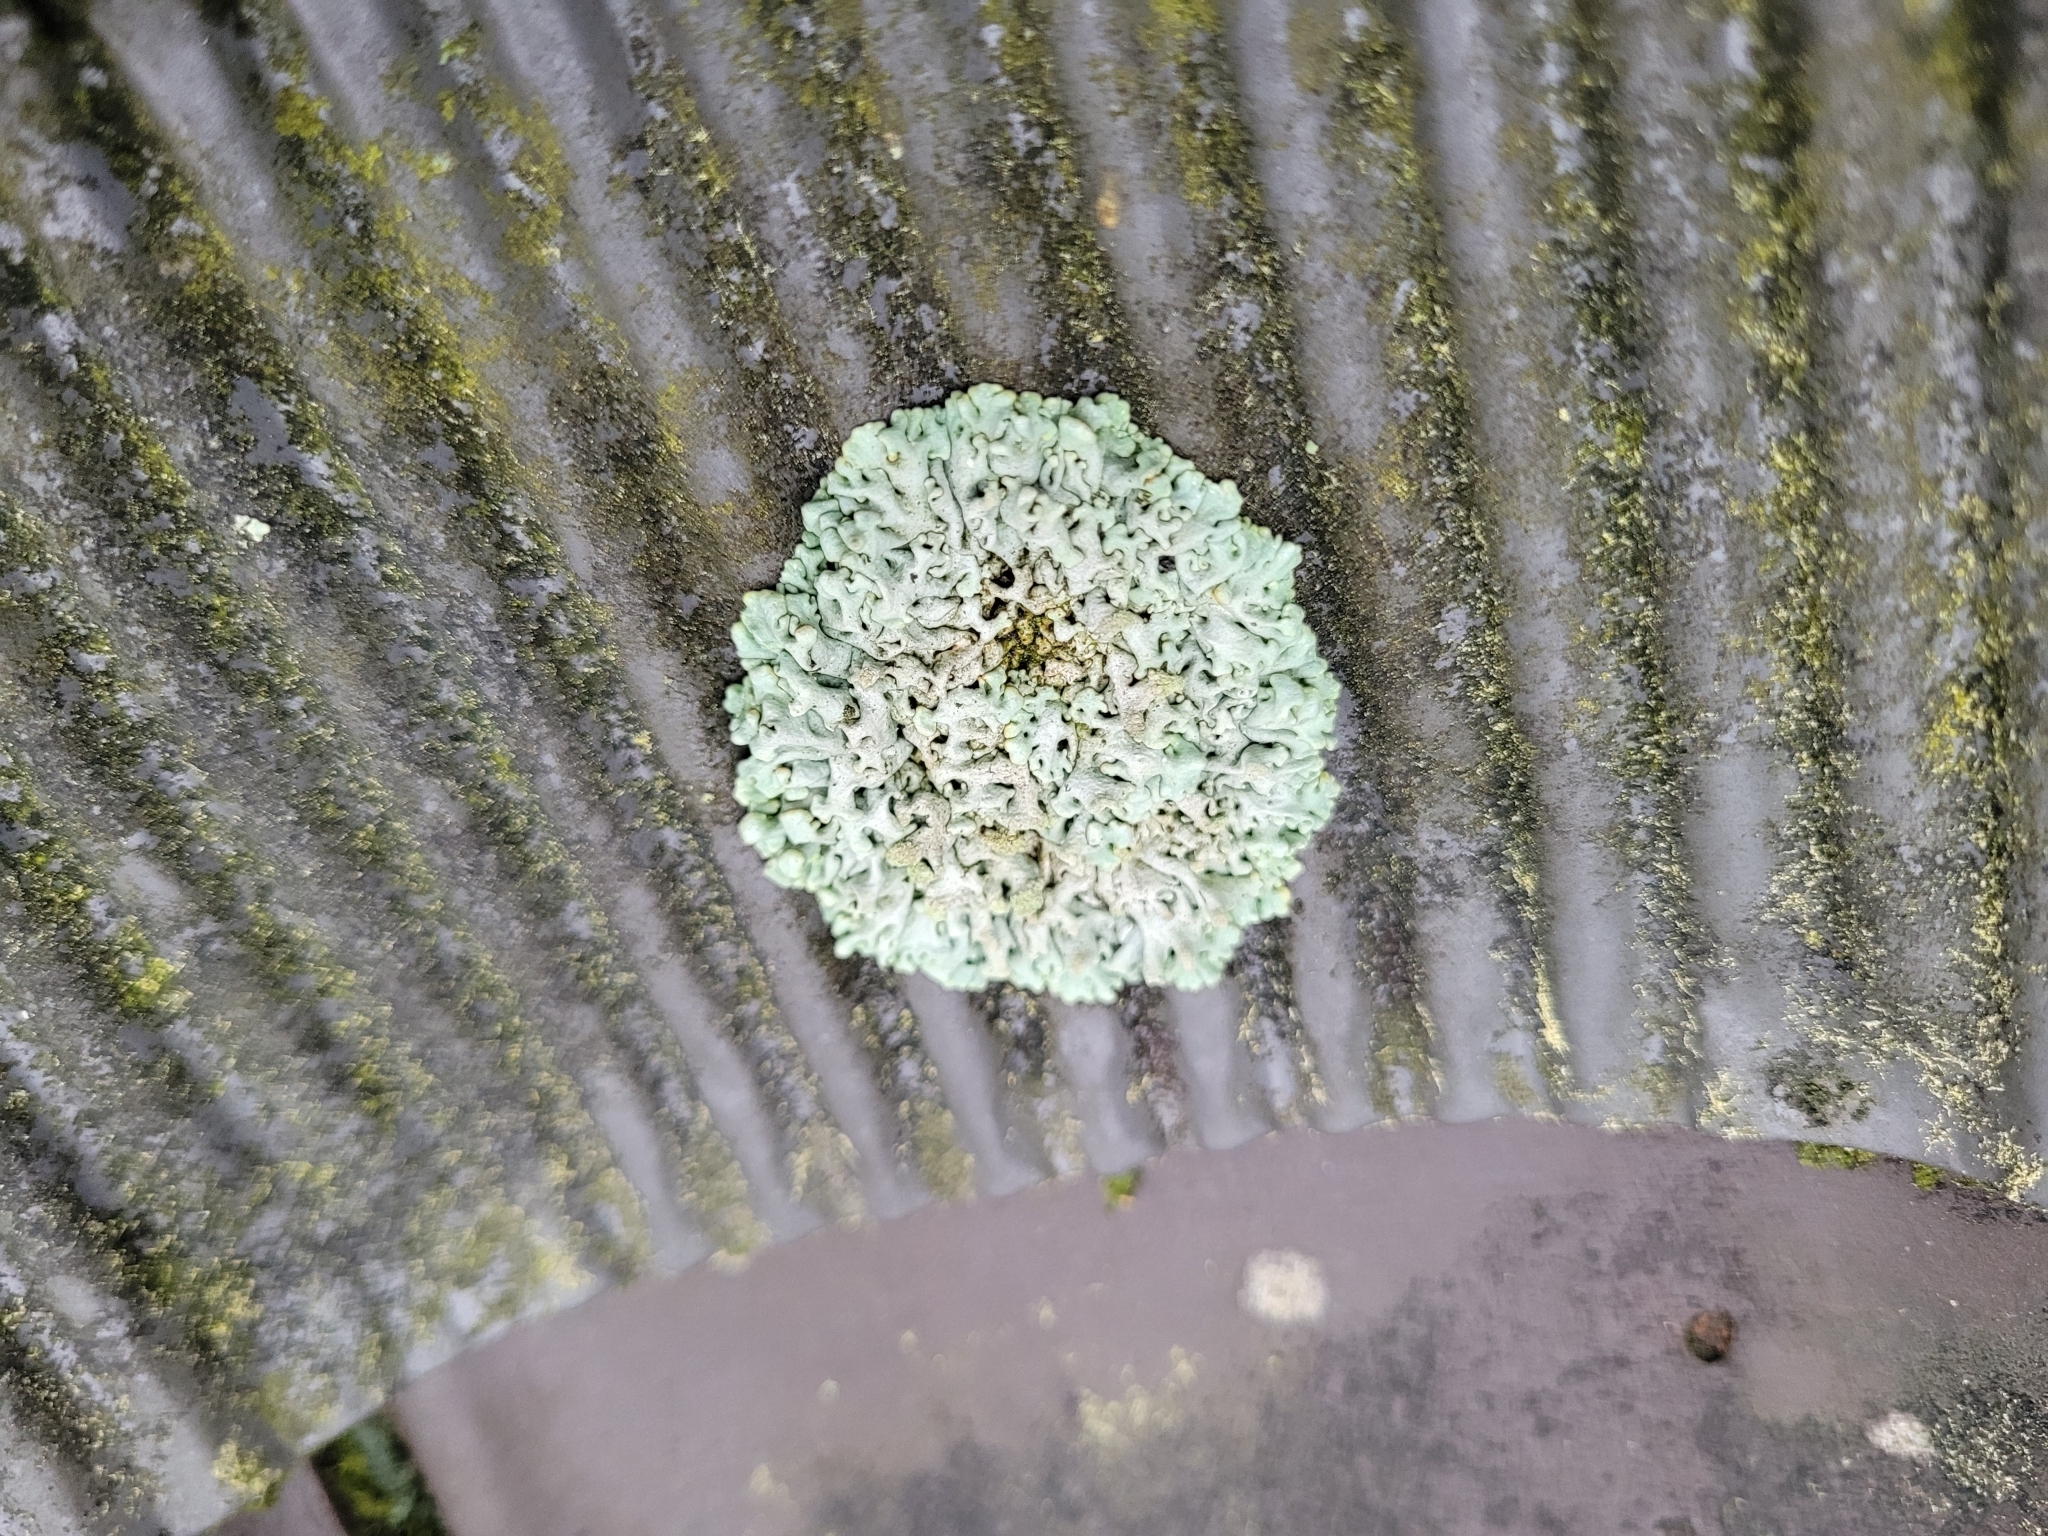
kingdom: Fungi
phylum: Ascomycota
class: Lecanoromycetes
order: Lecanorales
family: Parmeliaceae
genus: Hypogymnia
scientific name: Hypogymnia tubulosa
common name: Powder-headed tube lichen
